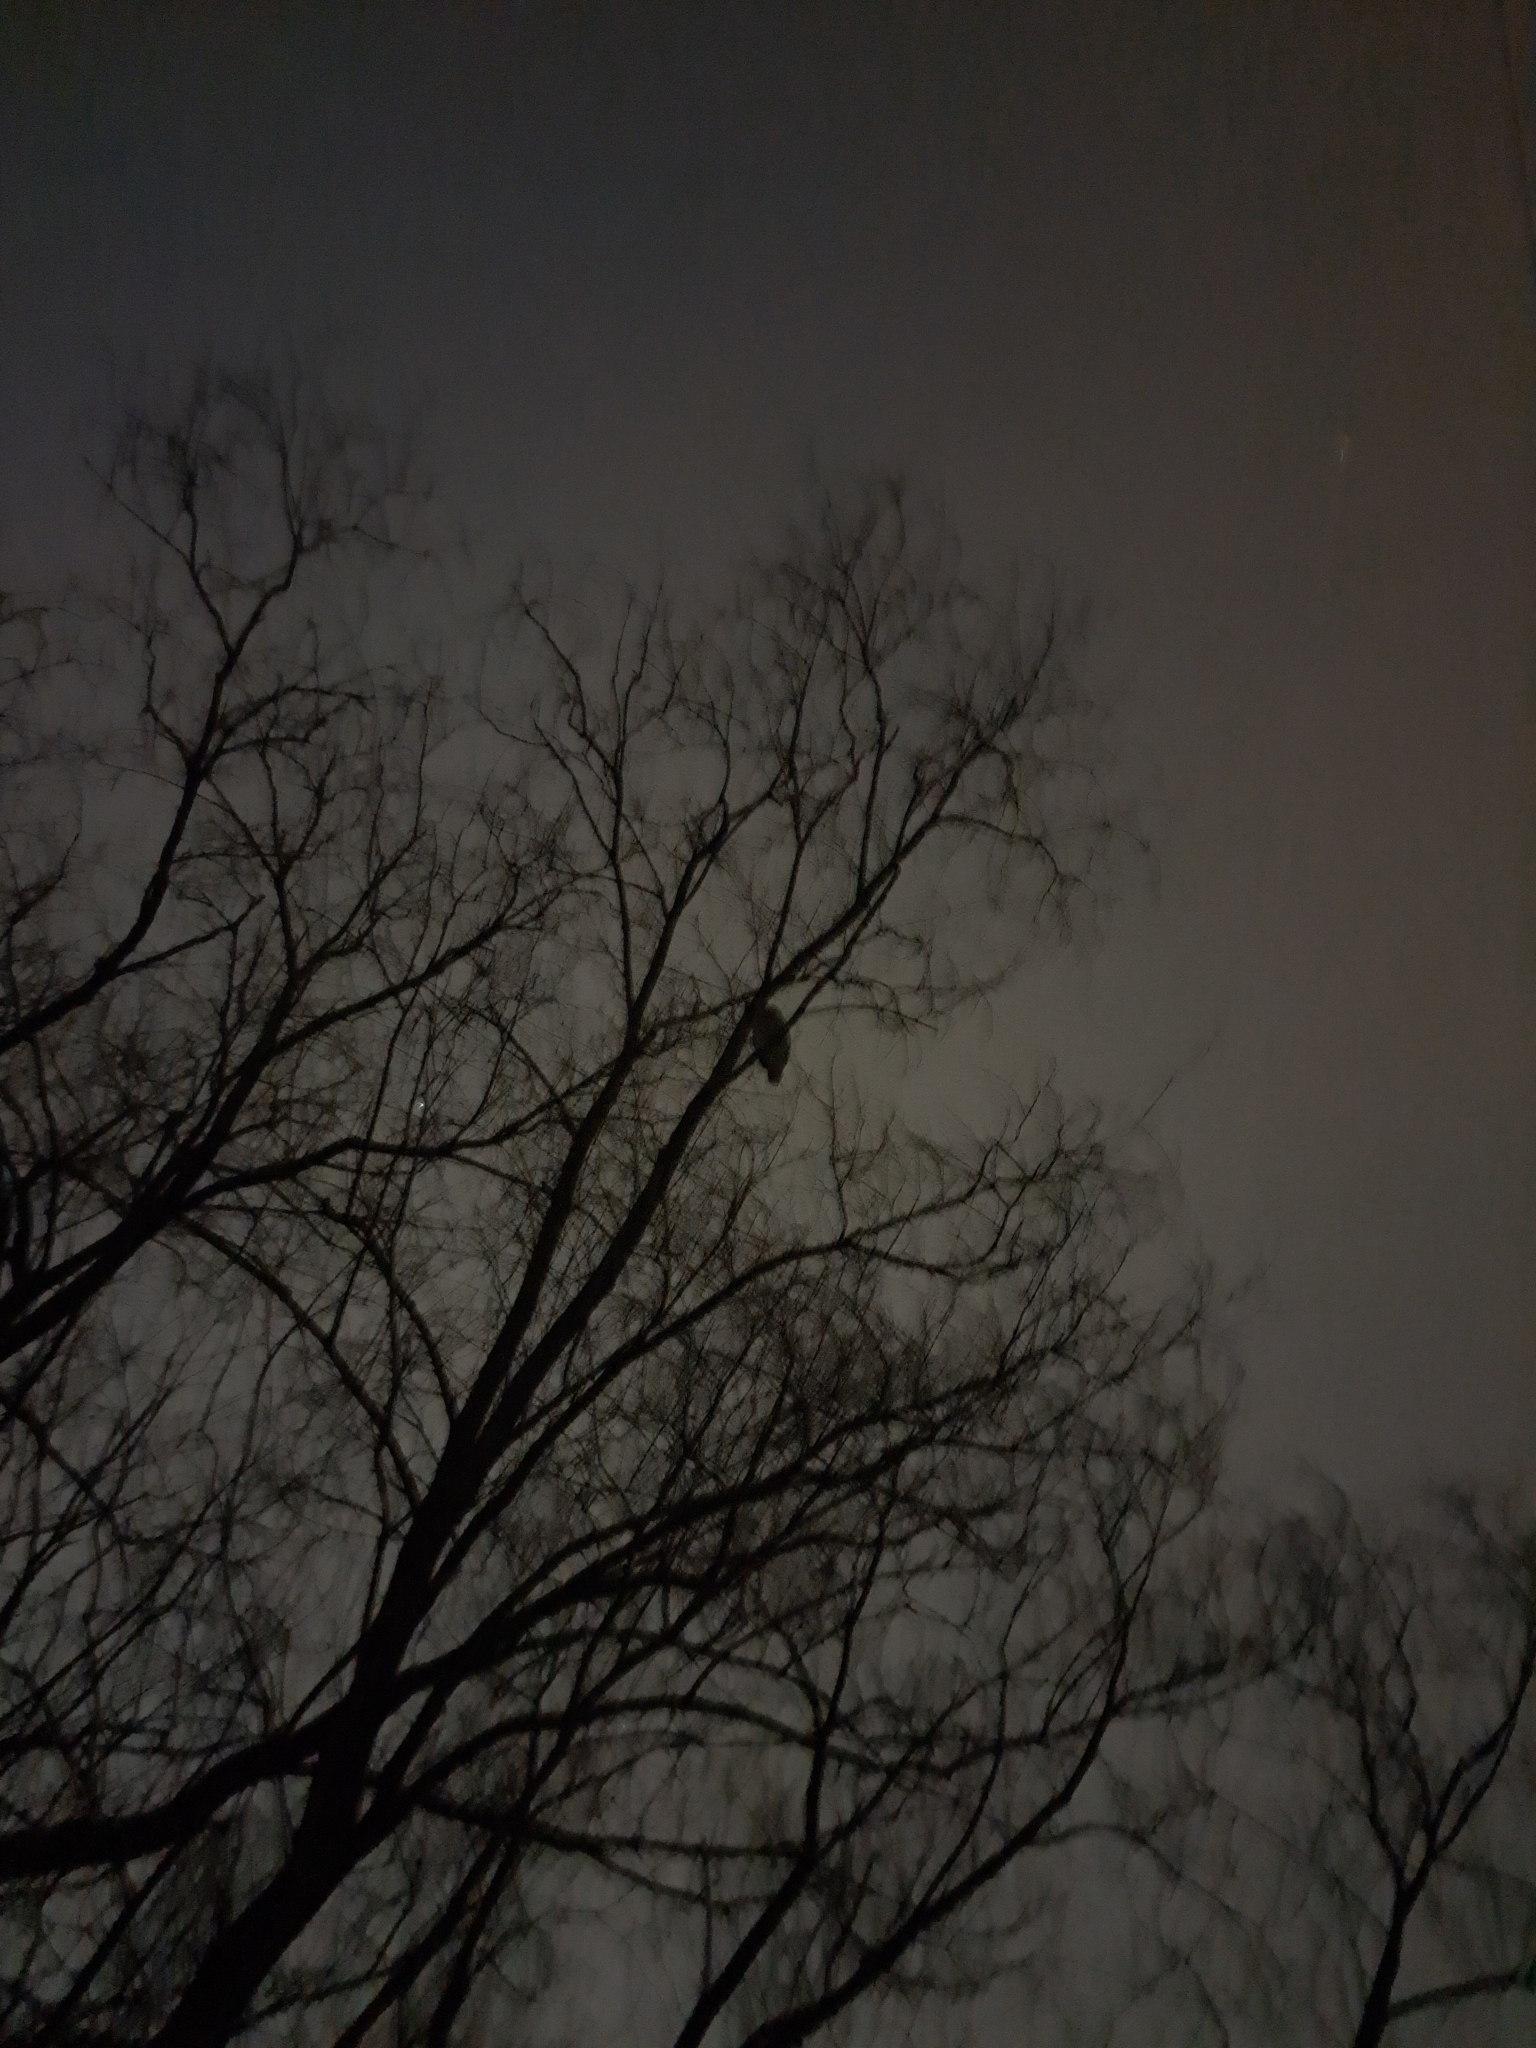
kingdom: Animalia
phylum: Chordata
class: Aves
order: Strigiformes
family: Strigidae
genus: Strix
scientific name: Strix uralensis
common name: Ural owl
